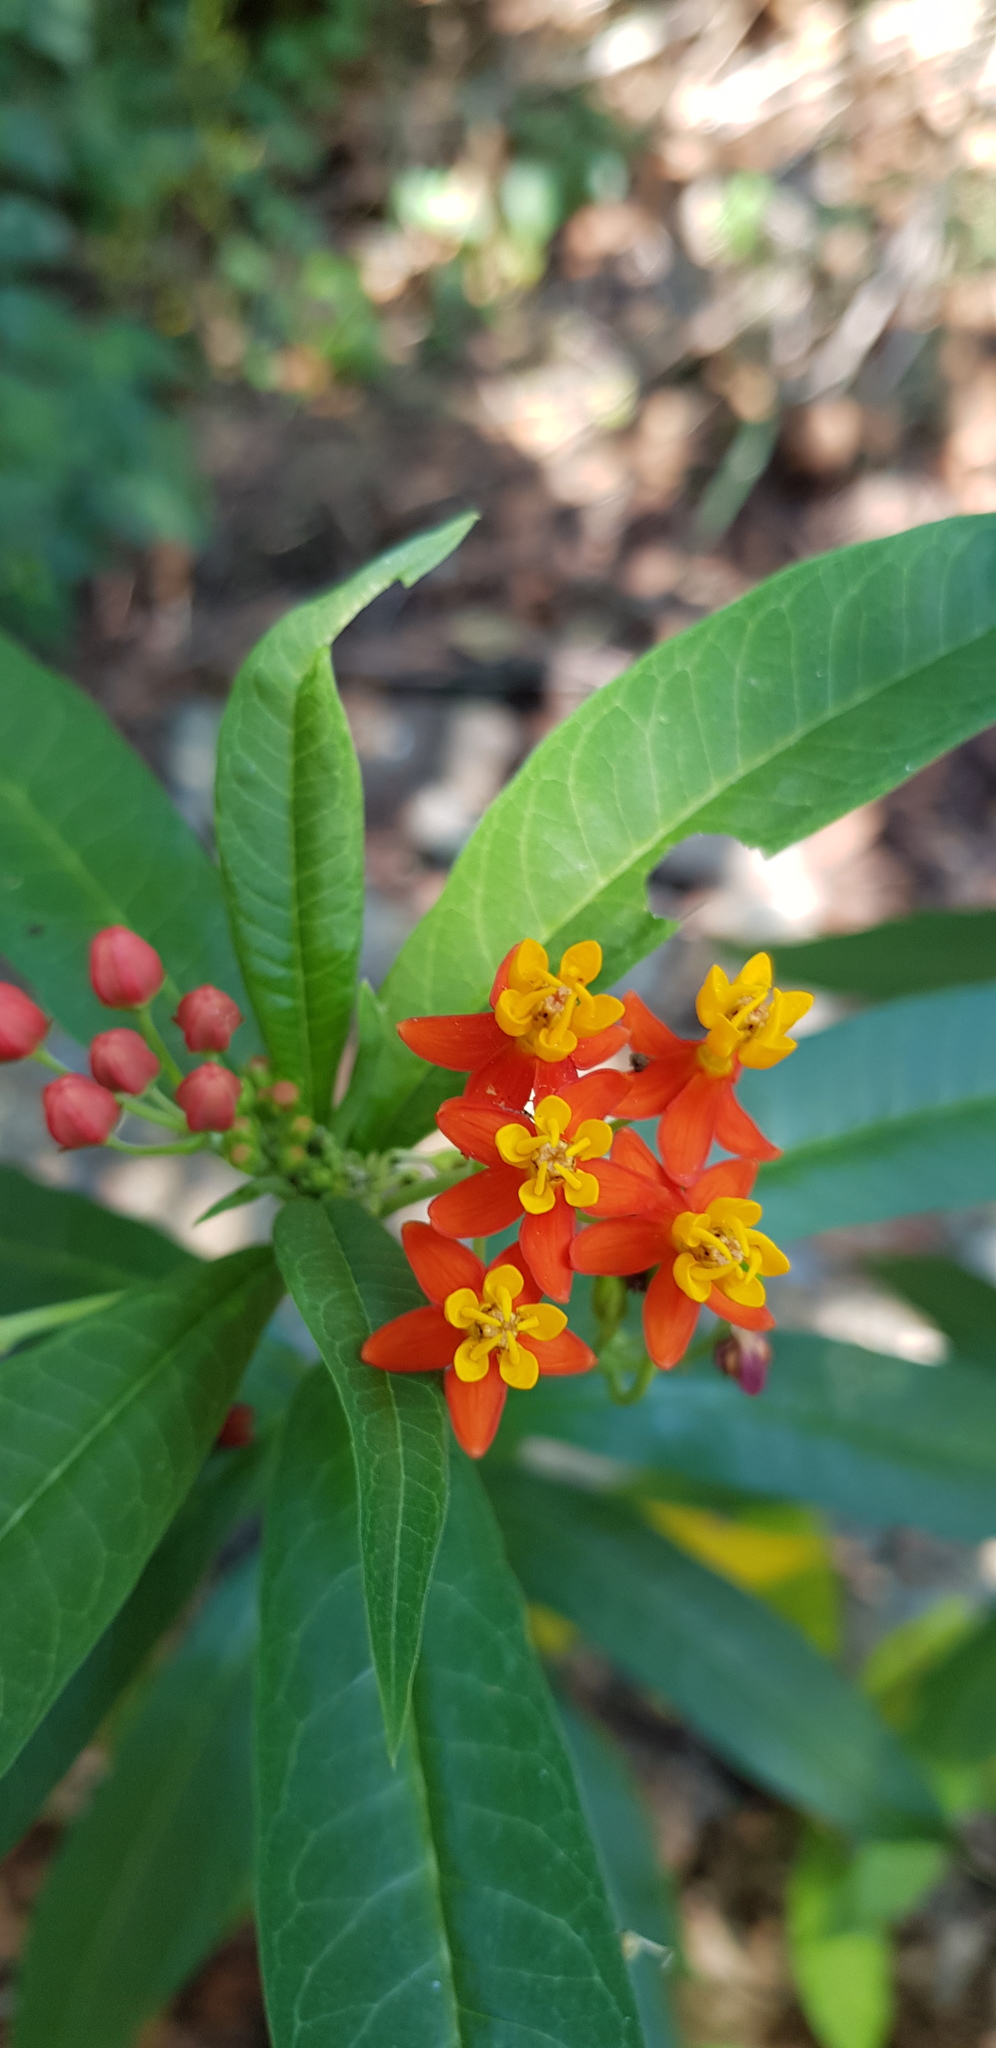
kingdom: Plantae
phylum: Tracheophyta
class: Magnoliopsida
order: Gentianales
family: Apocynaceae
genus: Asclepias
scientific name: Asclepias curassavica
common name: Bloodflower
